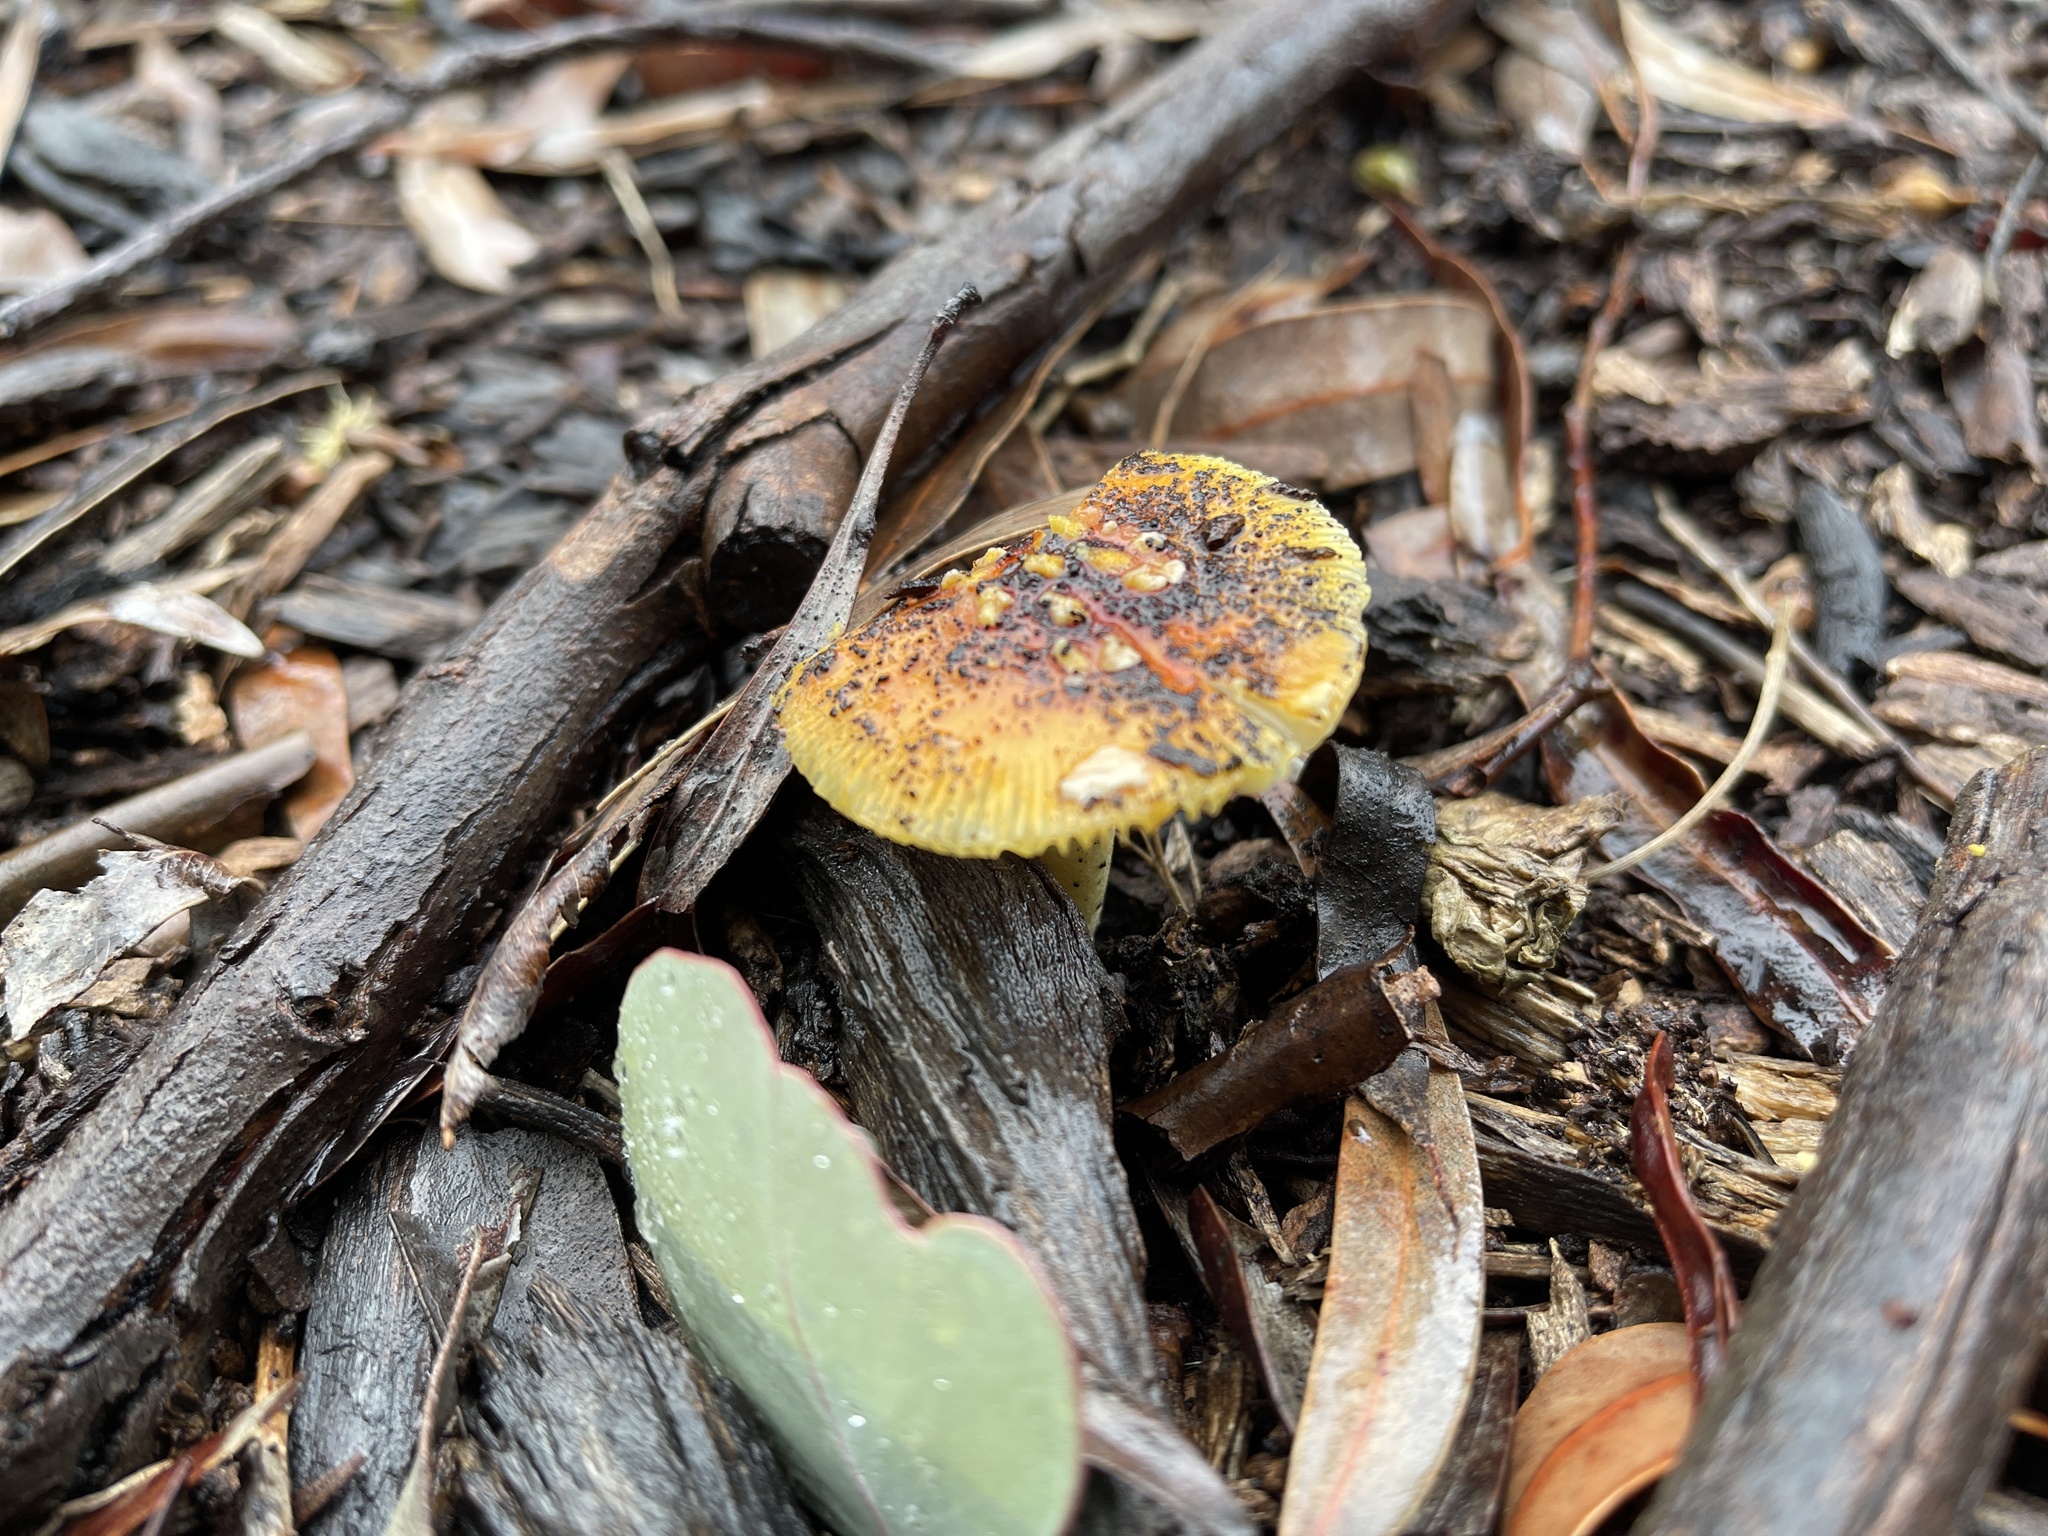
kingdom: Fungi
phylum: Basidiomycota
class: Agaricomycetes
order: Agaricales
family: Amanitaceae
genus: Amanita
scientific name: Amanita xanthocephala
